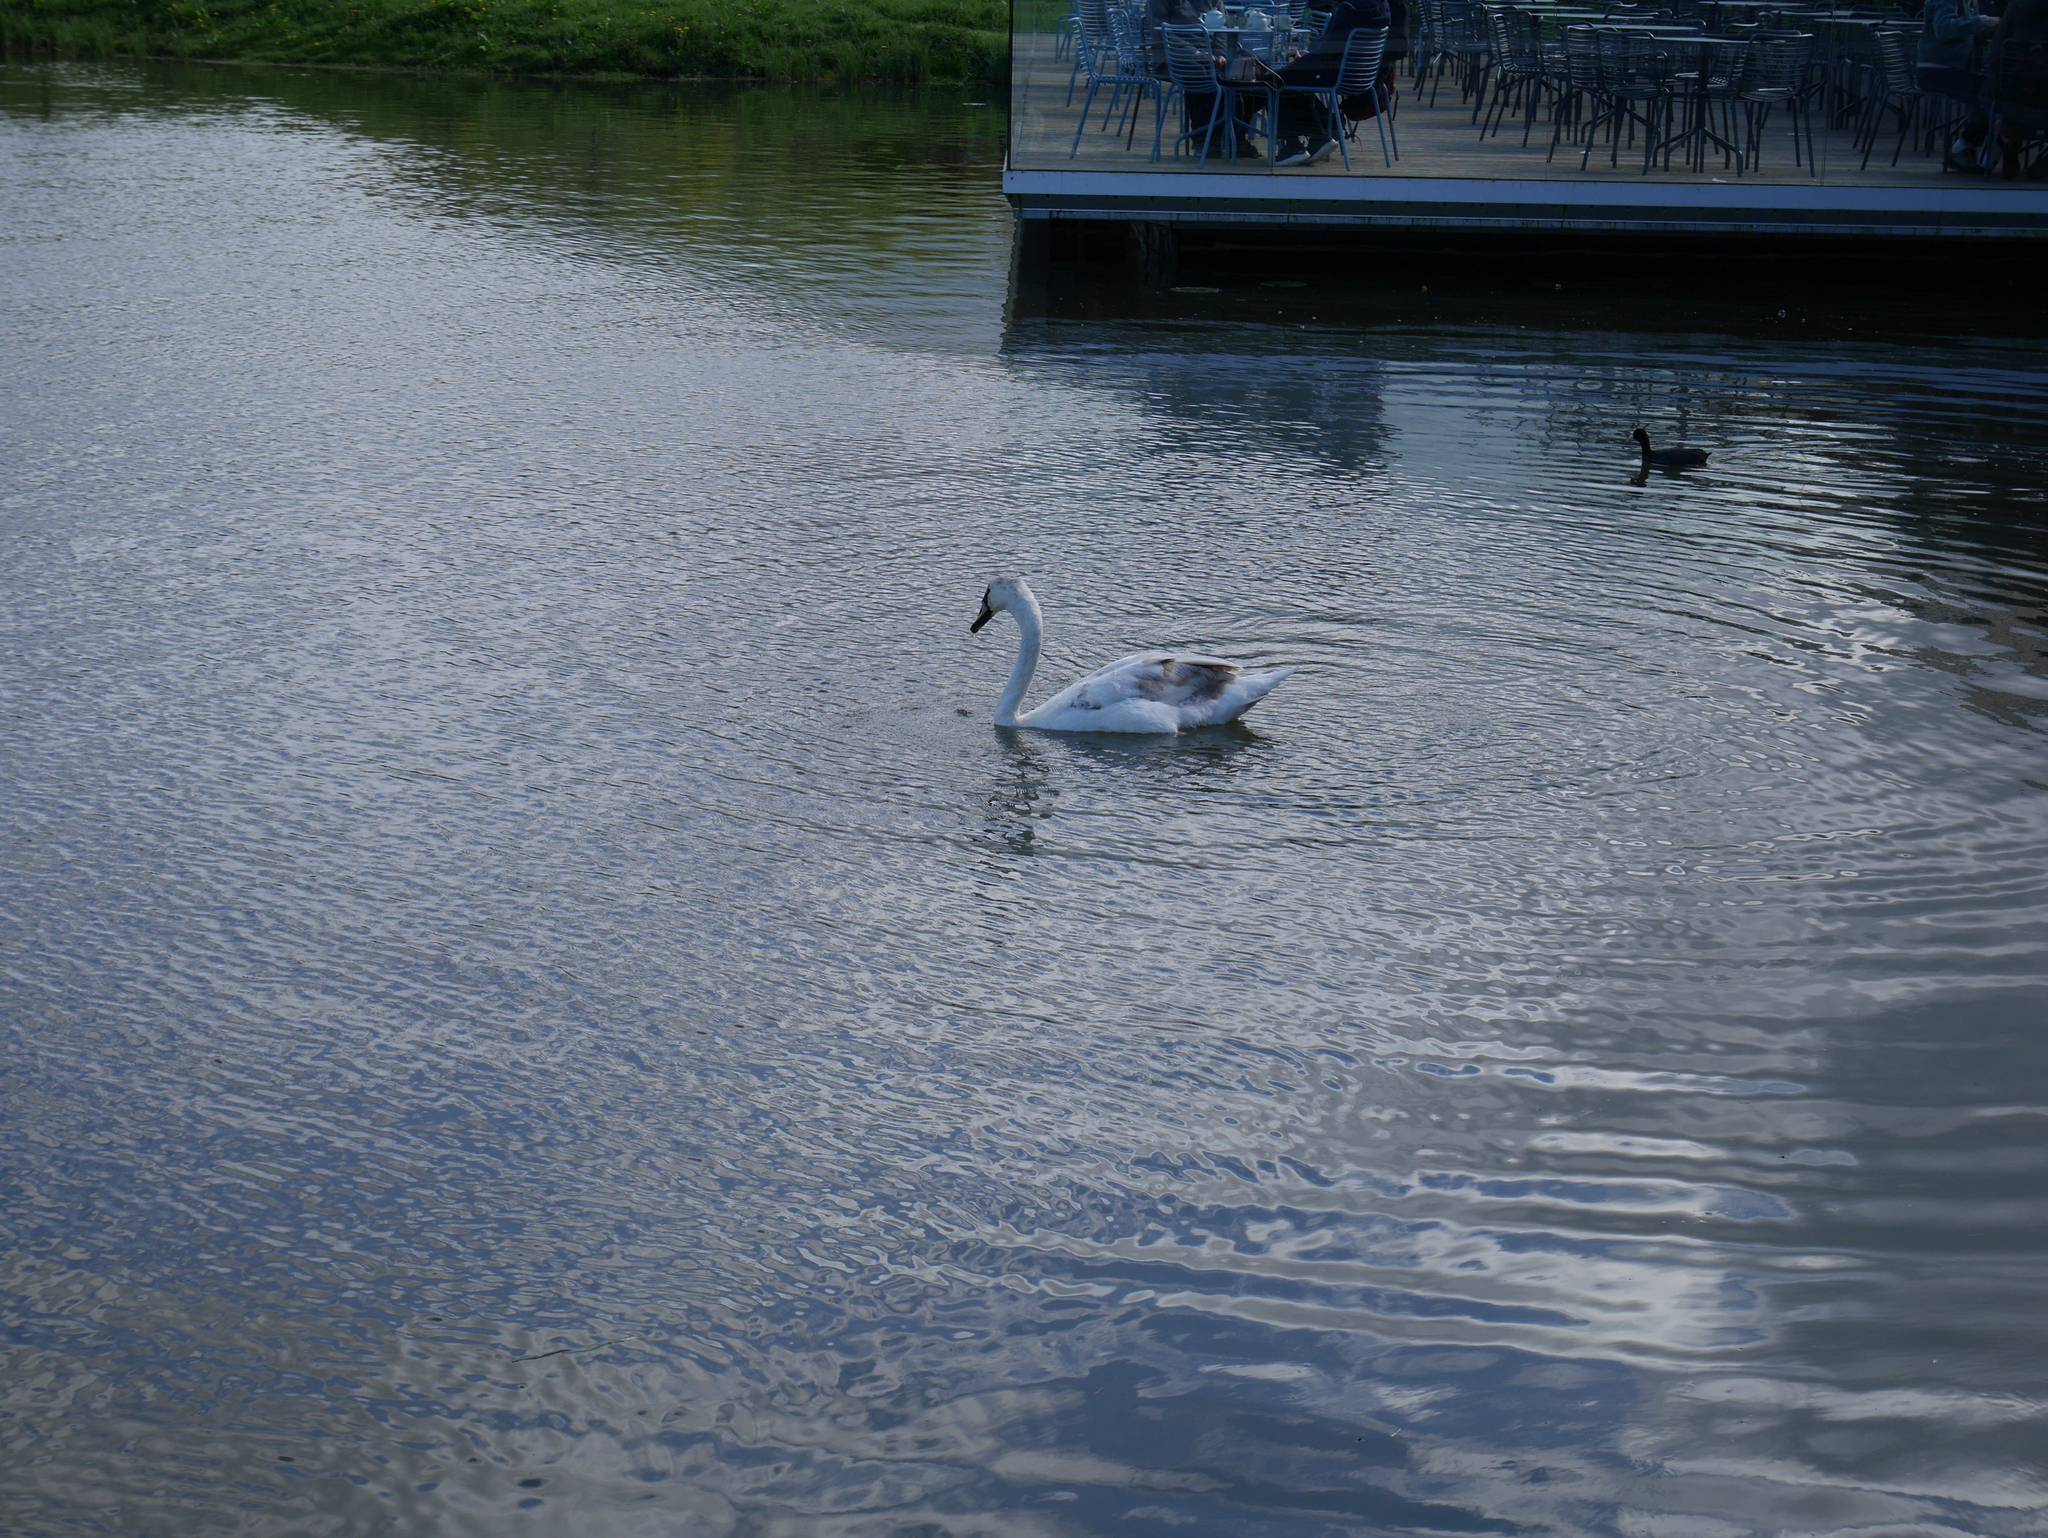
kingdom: Animalia
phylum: Chordata
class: Aves
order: Anseriformes
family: Anatidae
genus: Cygnus
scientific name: Cygnus olor
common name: Mute swan
